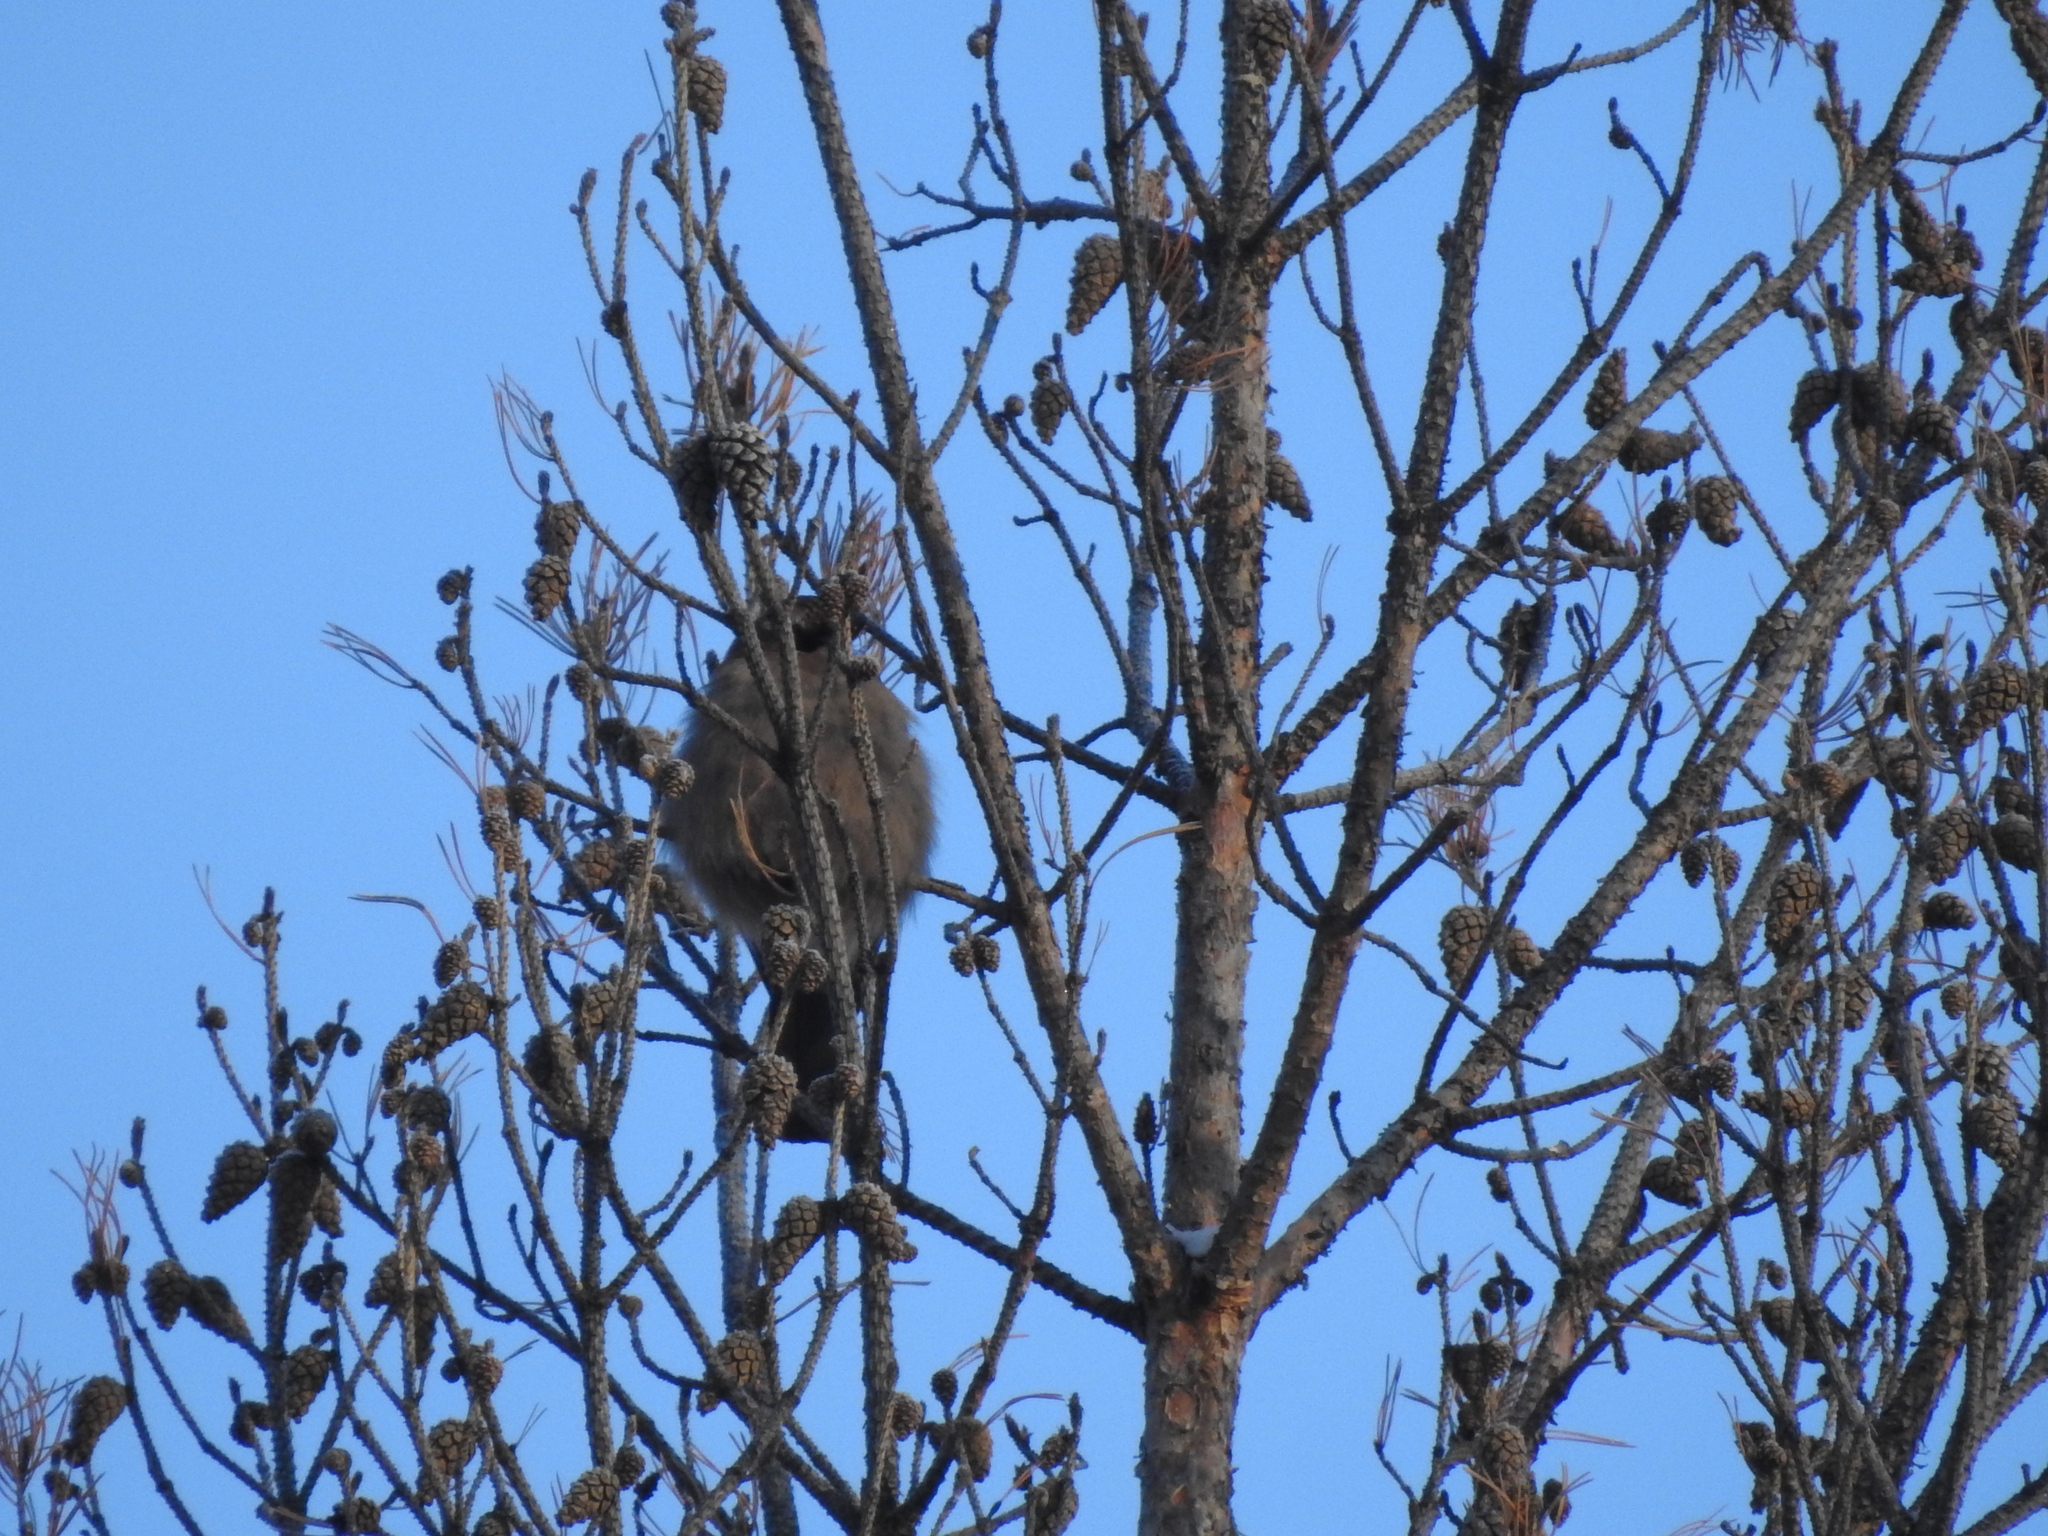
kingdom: Animalia
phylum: Chordata
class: Aves
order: Passeriformes
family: Corvidae
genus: Garrulus
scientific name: Garrulus glandarius
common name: Eurasian jay
